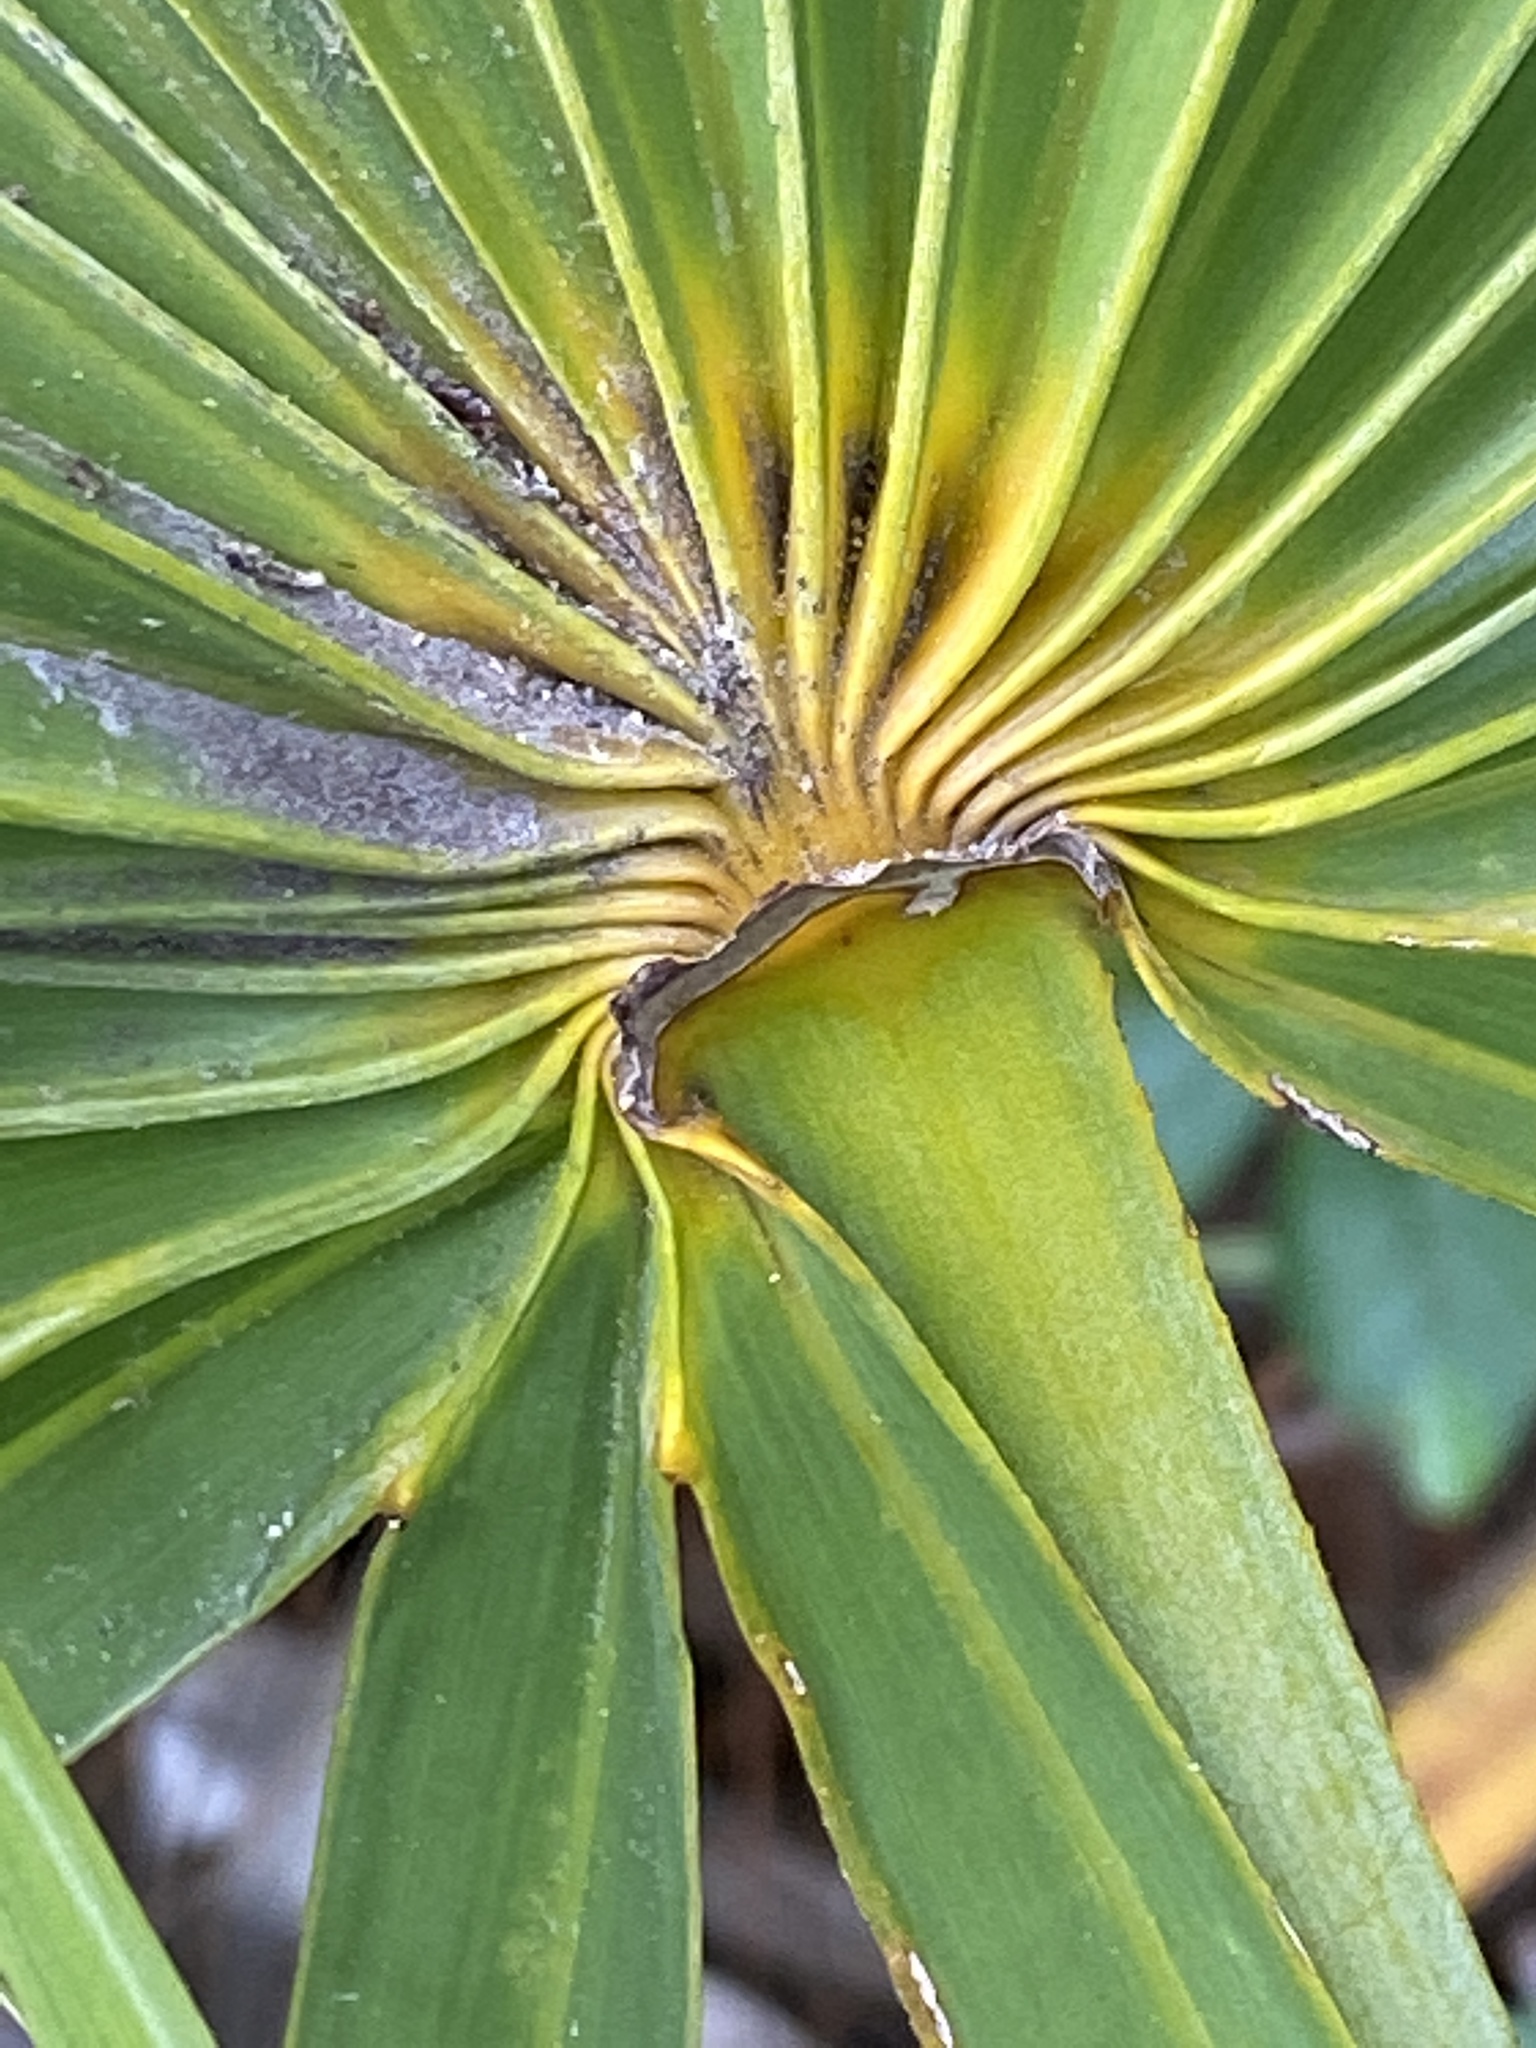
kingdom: Plantae
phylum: Tracheophyta
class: Liliopsida
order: Arecales
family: Arecaceae
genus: Serenoa
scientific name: Serenoa repens
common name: Saw-palmetto
